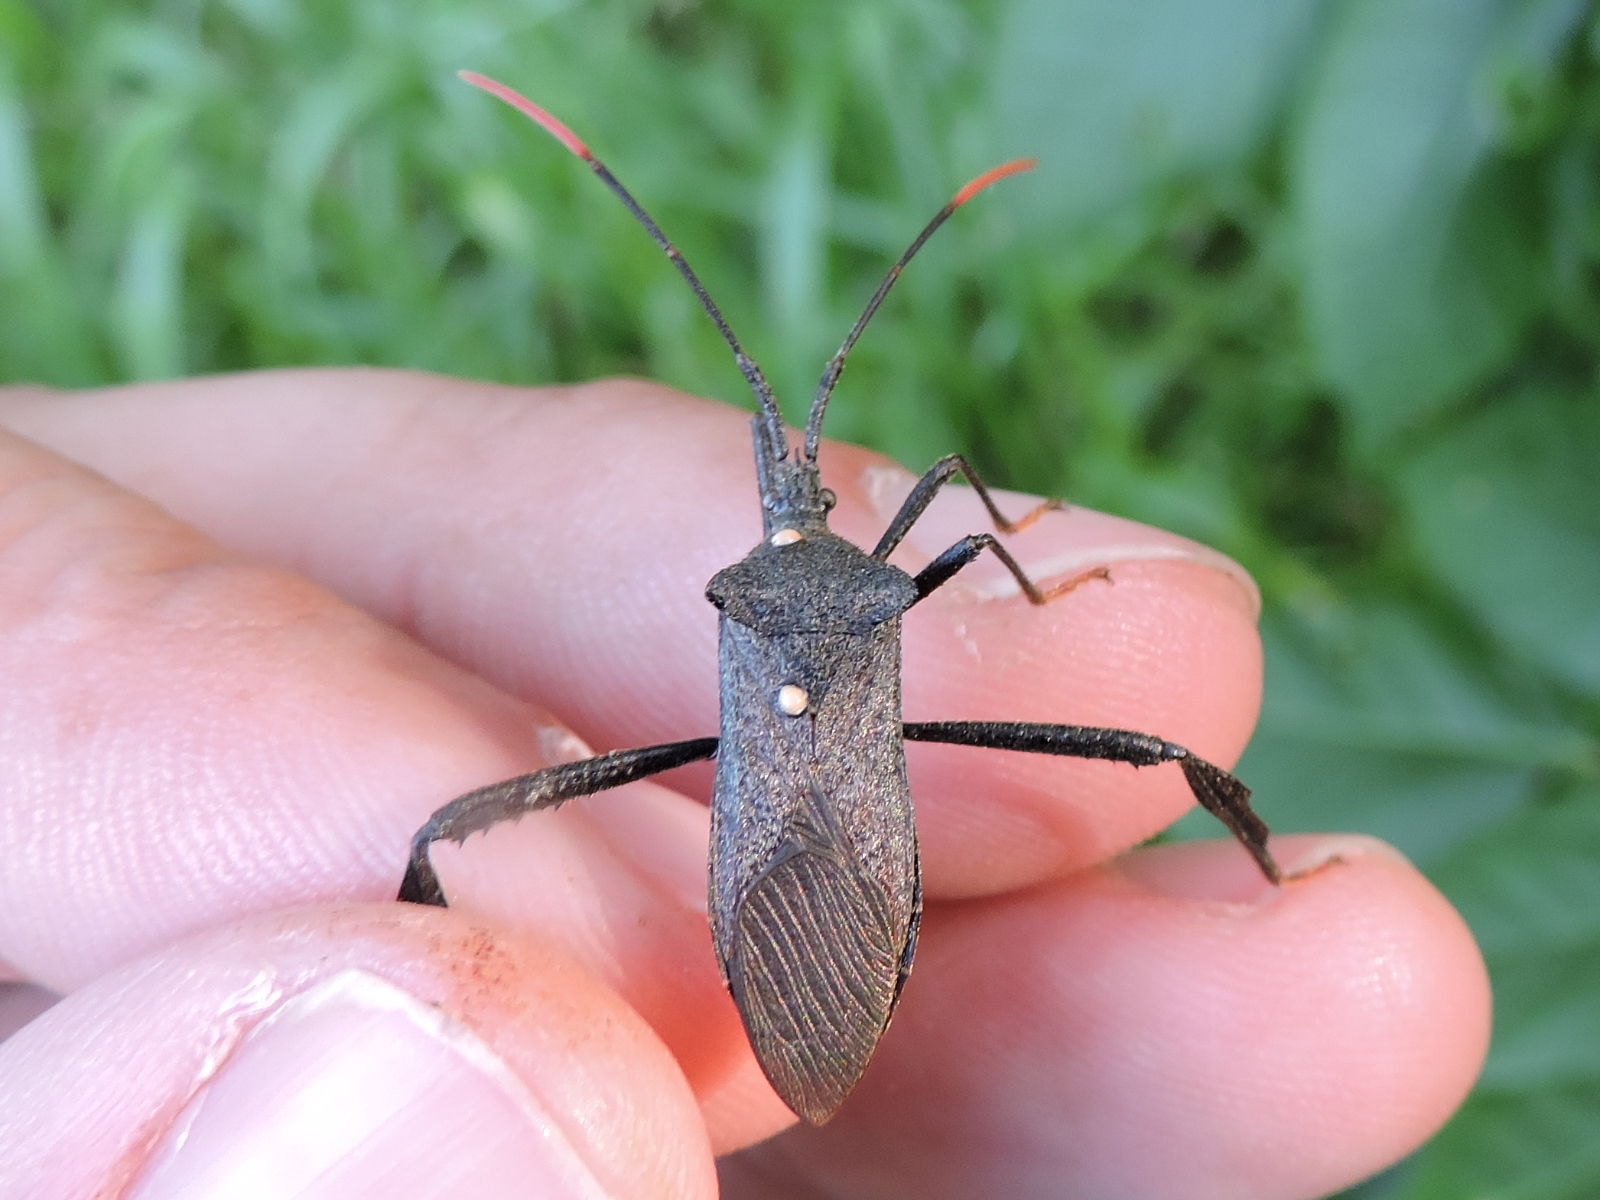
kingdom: Animalia
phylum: Arthropoda
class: Insecta
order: Hemiptera
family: Coreidae
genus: Acanthocephala
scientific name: Acanthocephala terminalis
